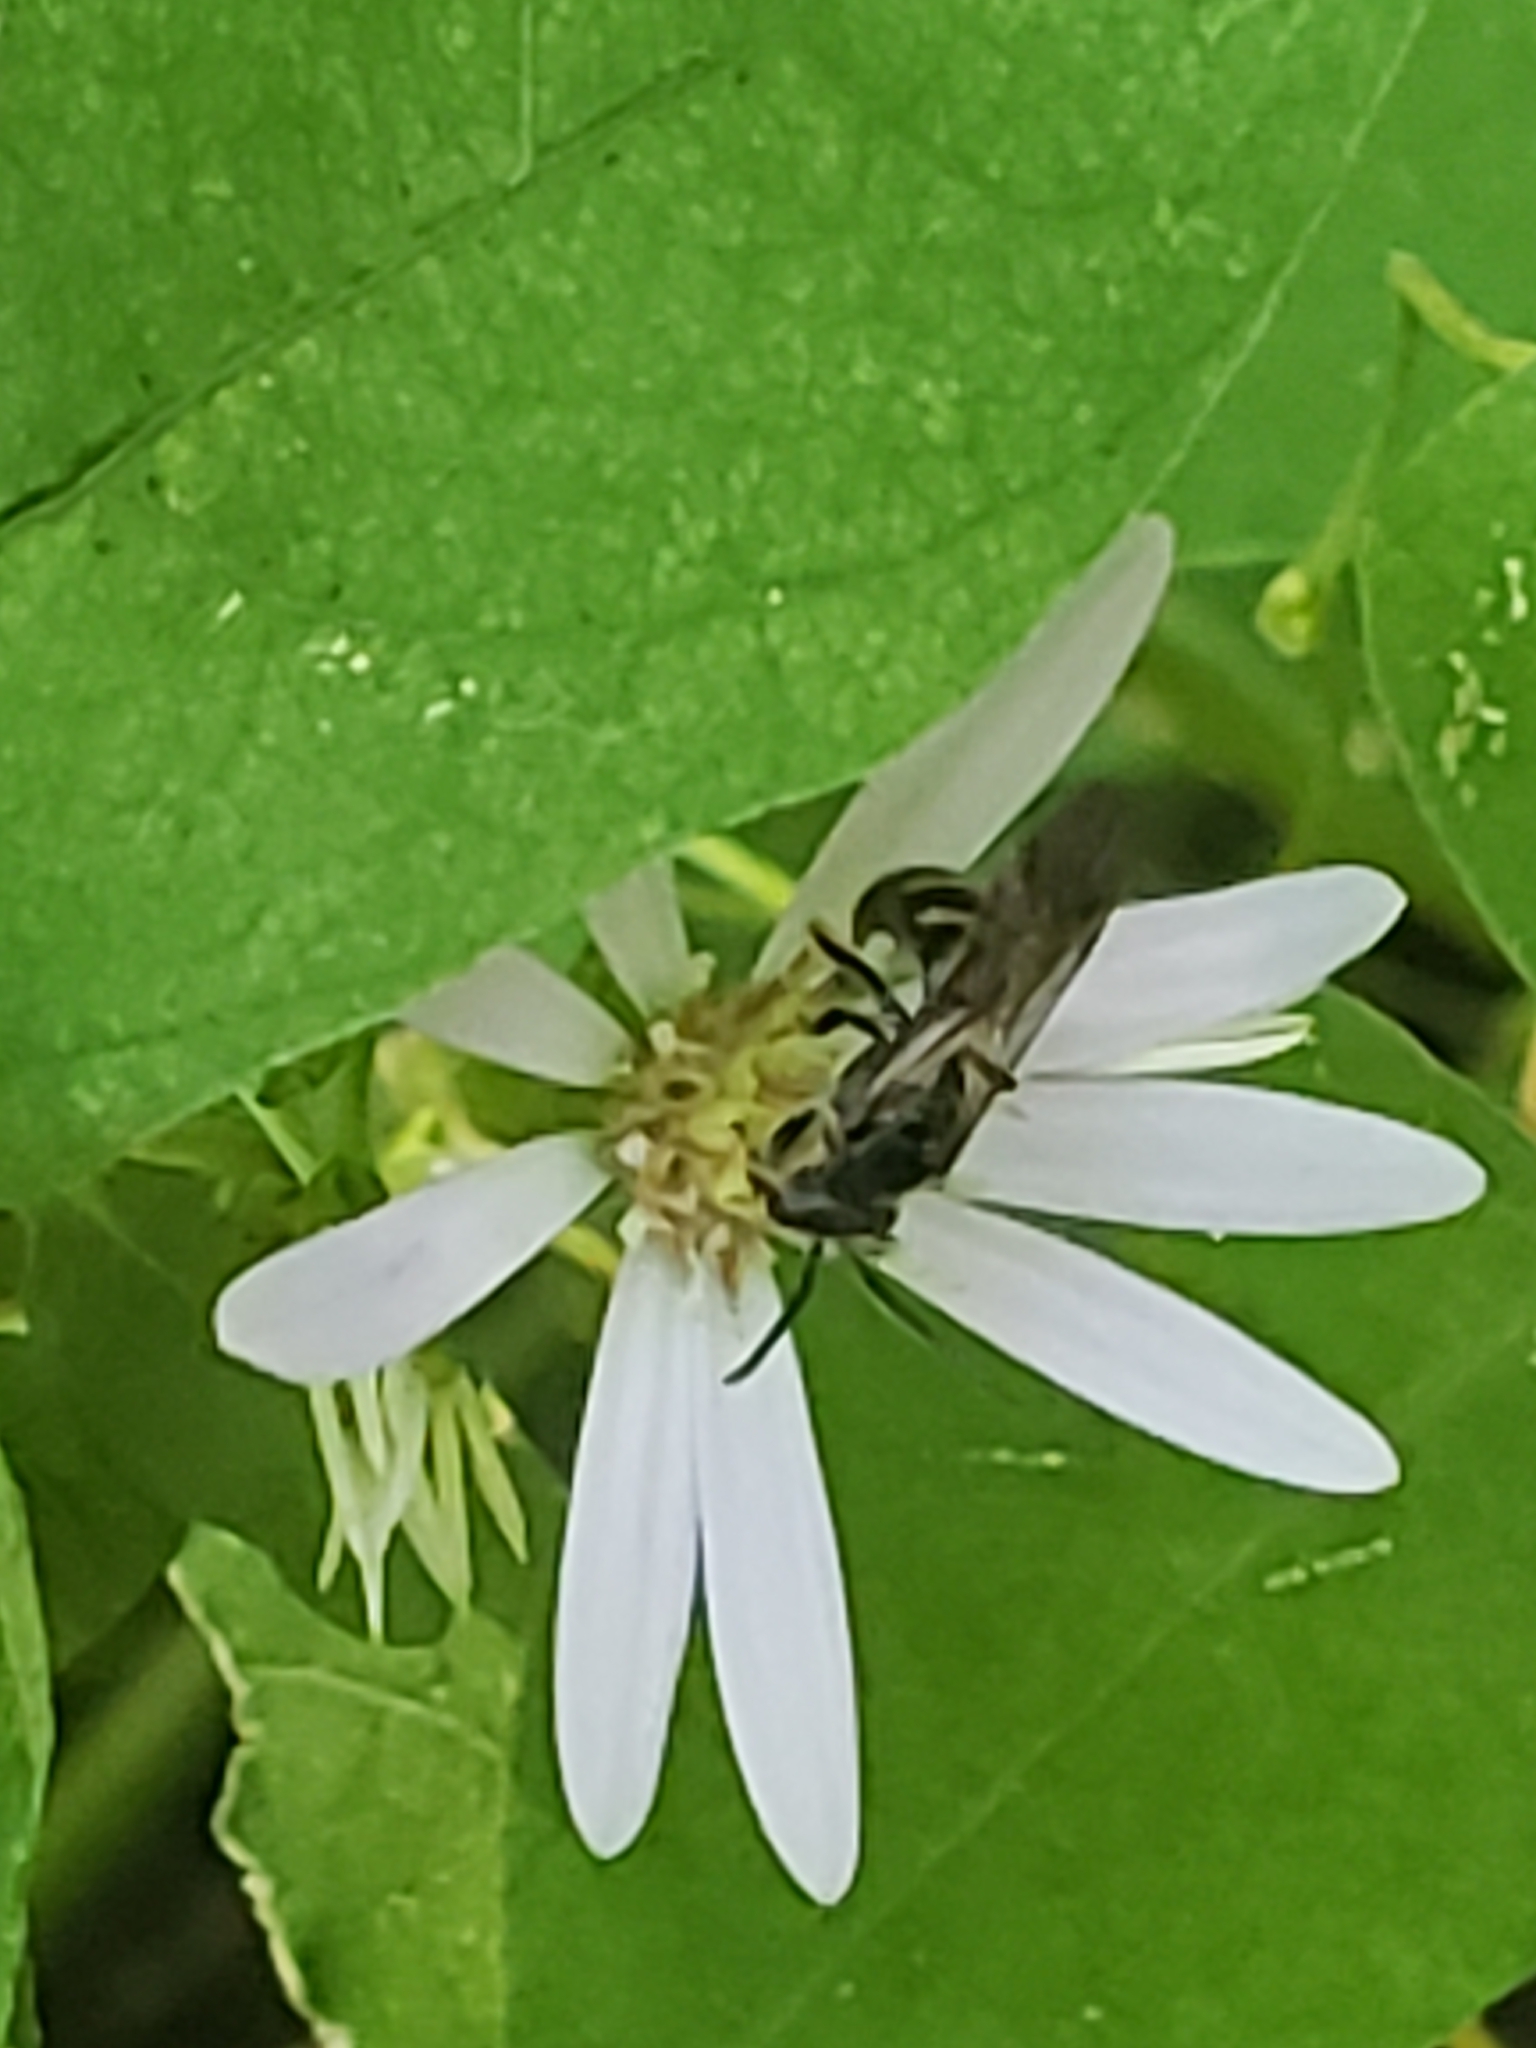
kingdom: Animalia
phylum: Arthropoda
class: Insecta
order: Hymenoptera
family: Halictidae
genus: Lasioglossum
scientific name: Lasioglossum fuscipenne
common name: Brown-winged sweat bee
